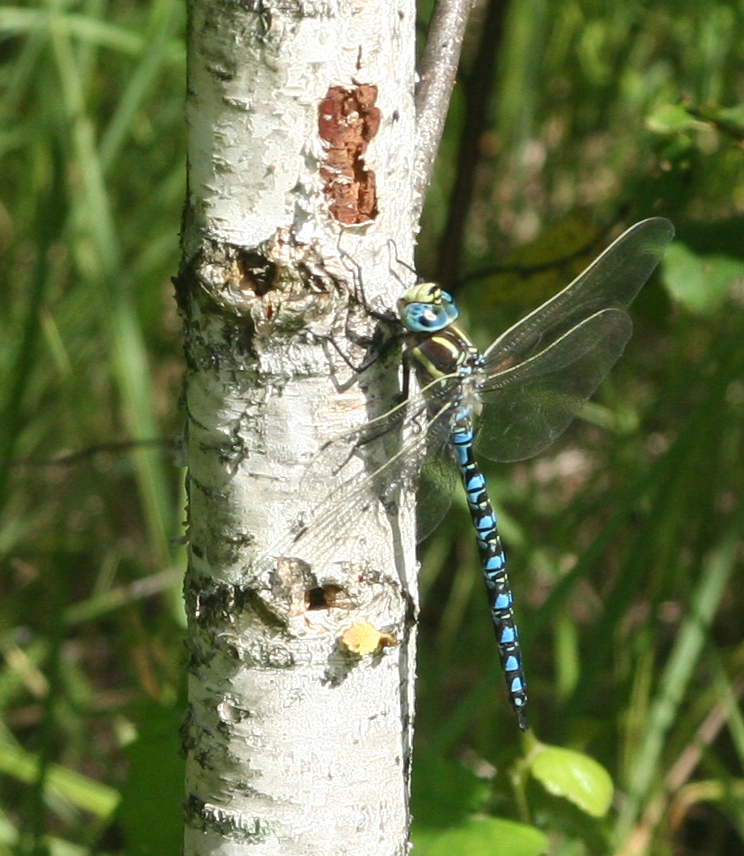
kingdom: Animalia
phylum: Arthropoda
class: Insecta
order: Odonata
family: Aeshnidae
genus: Aeshna
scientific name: Aeshna serrata
